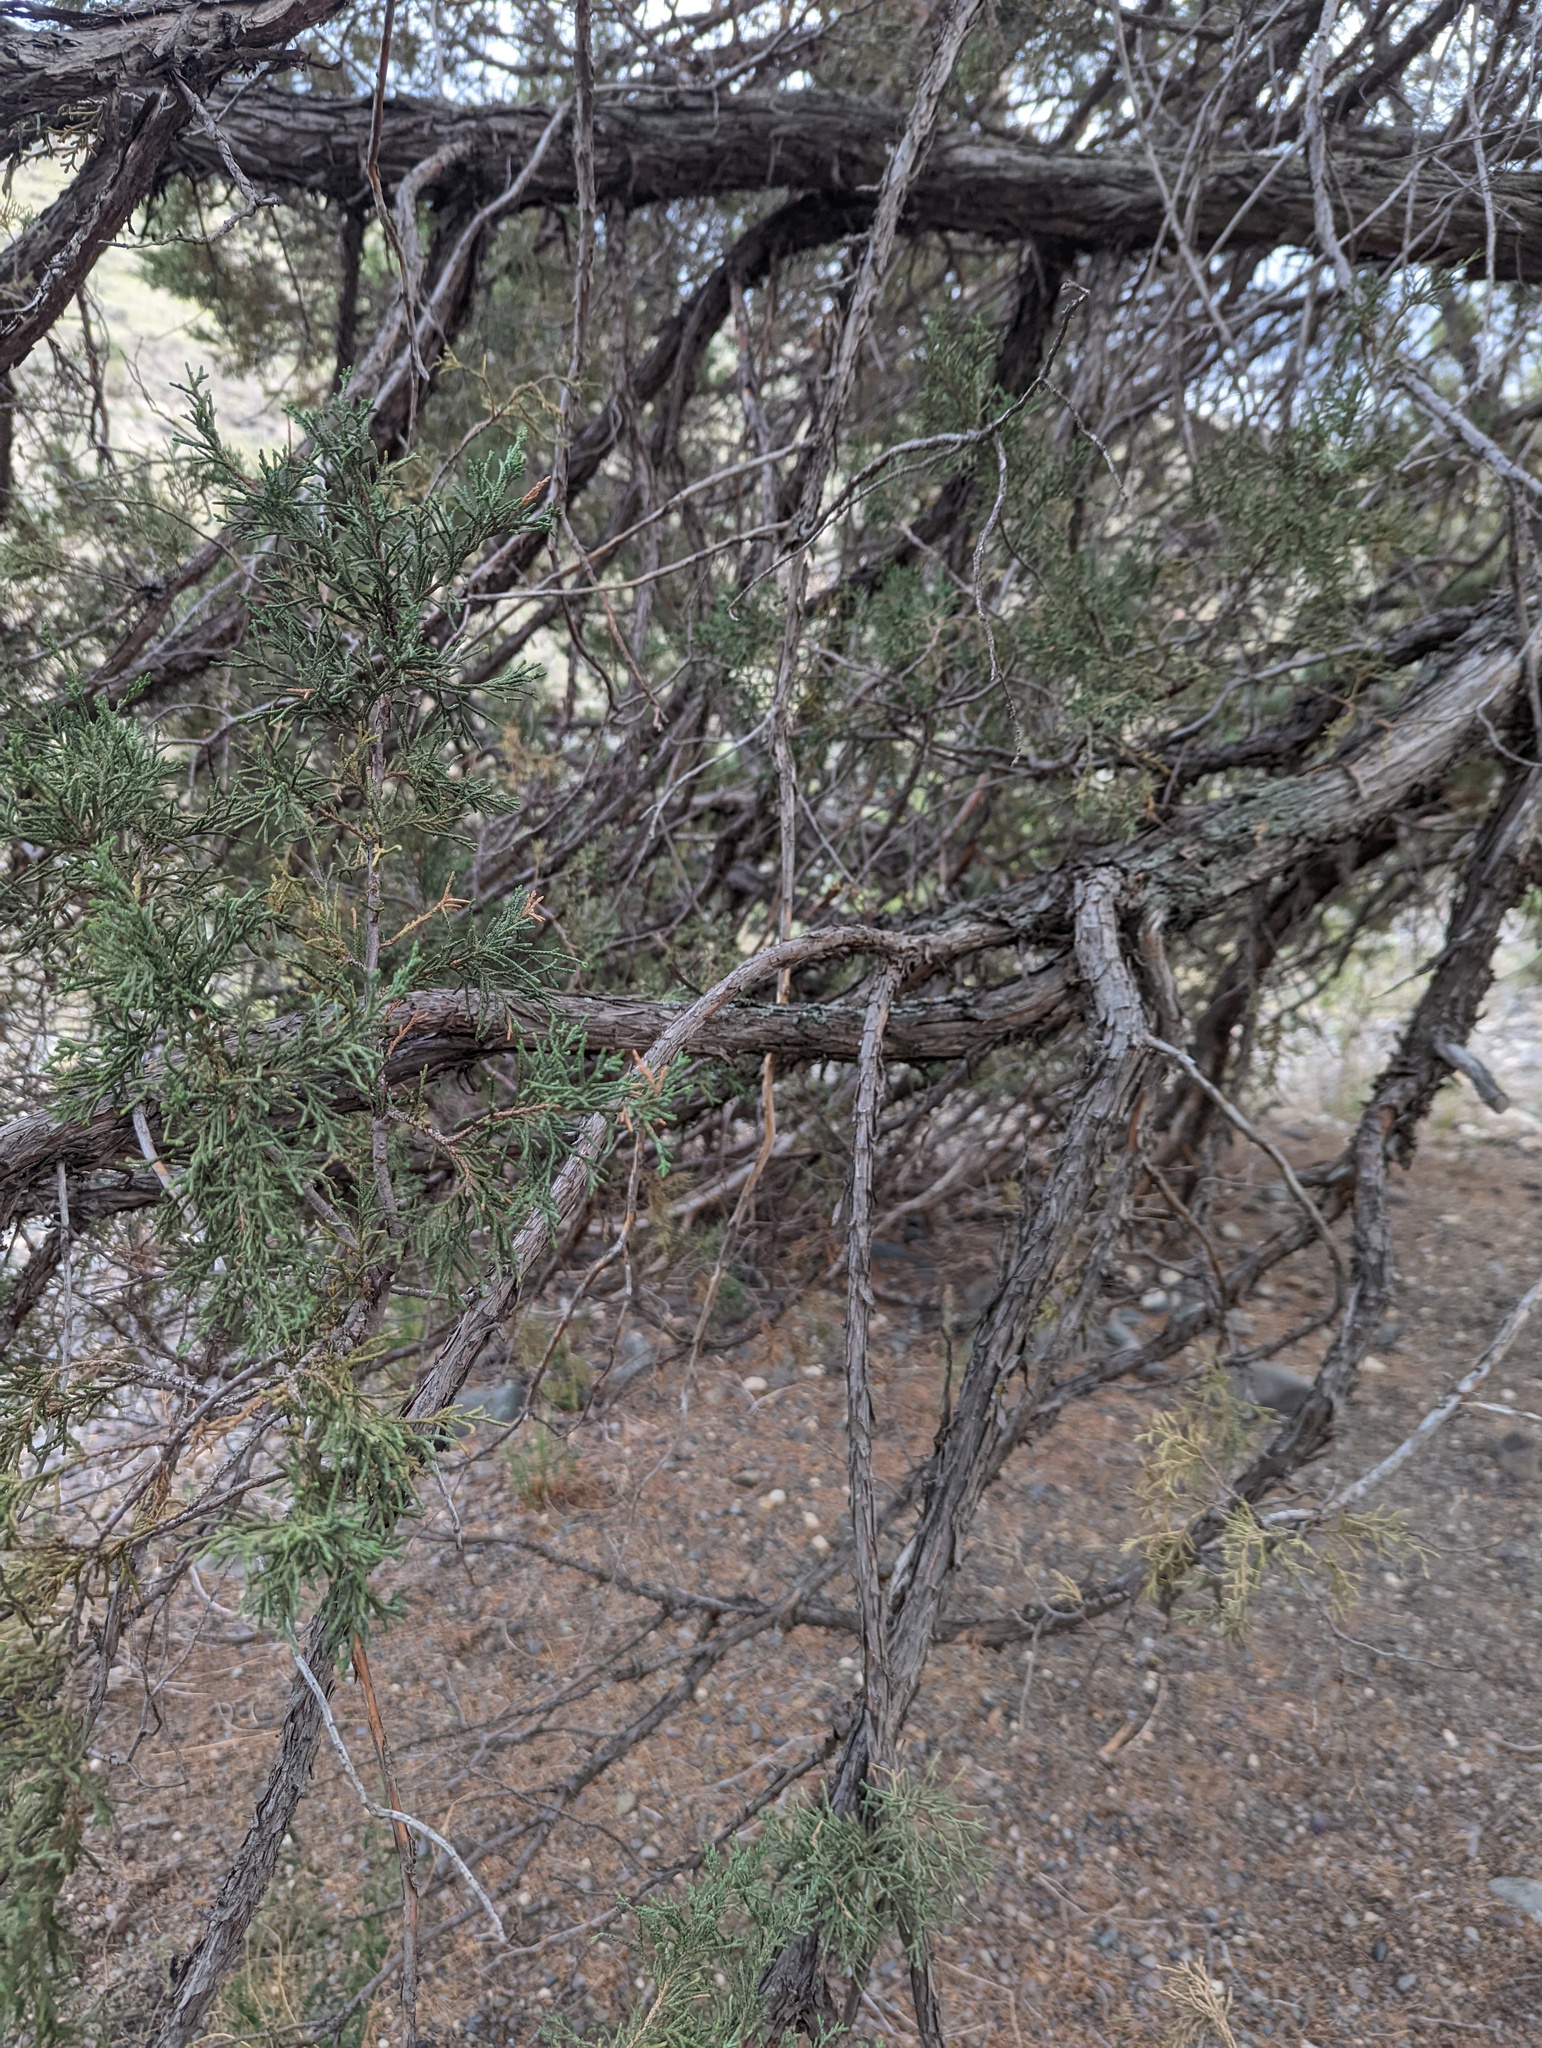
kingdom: Plantae
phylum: Tracheophyta
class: Pinopsida
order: Pinales
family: Cupressaceae
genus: Juniperus
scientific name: Juniperus scopulorum
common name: Rocky mountain juniper
